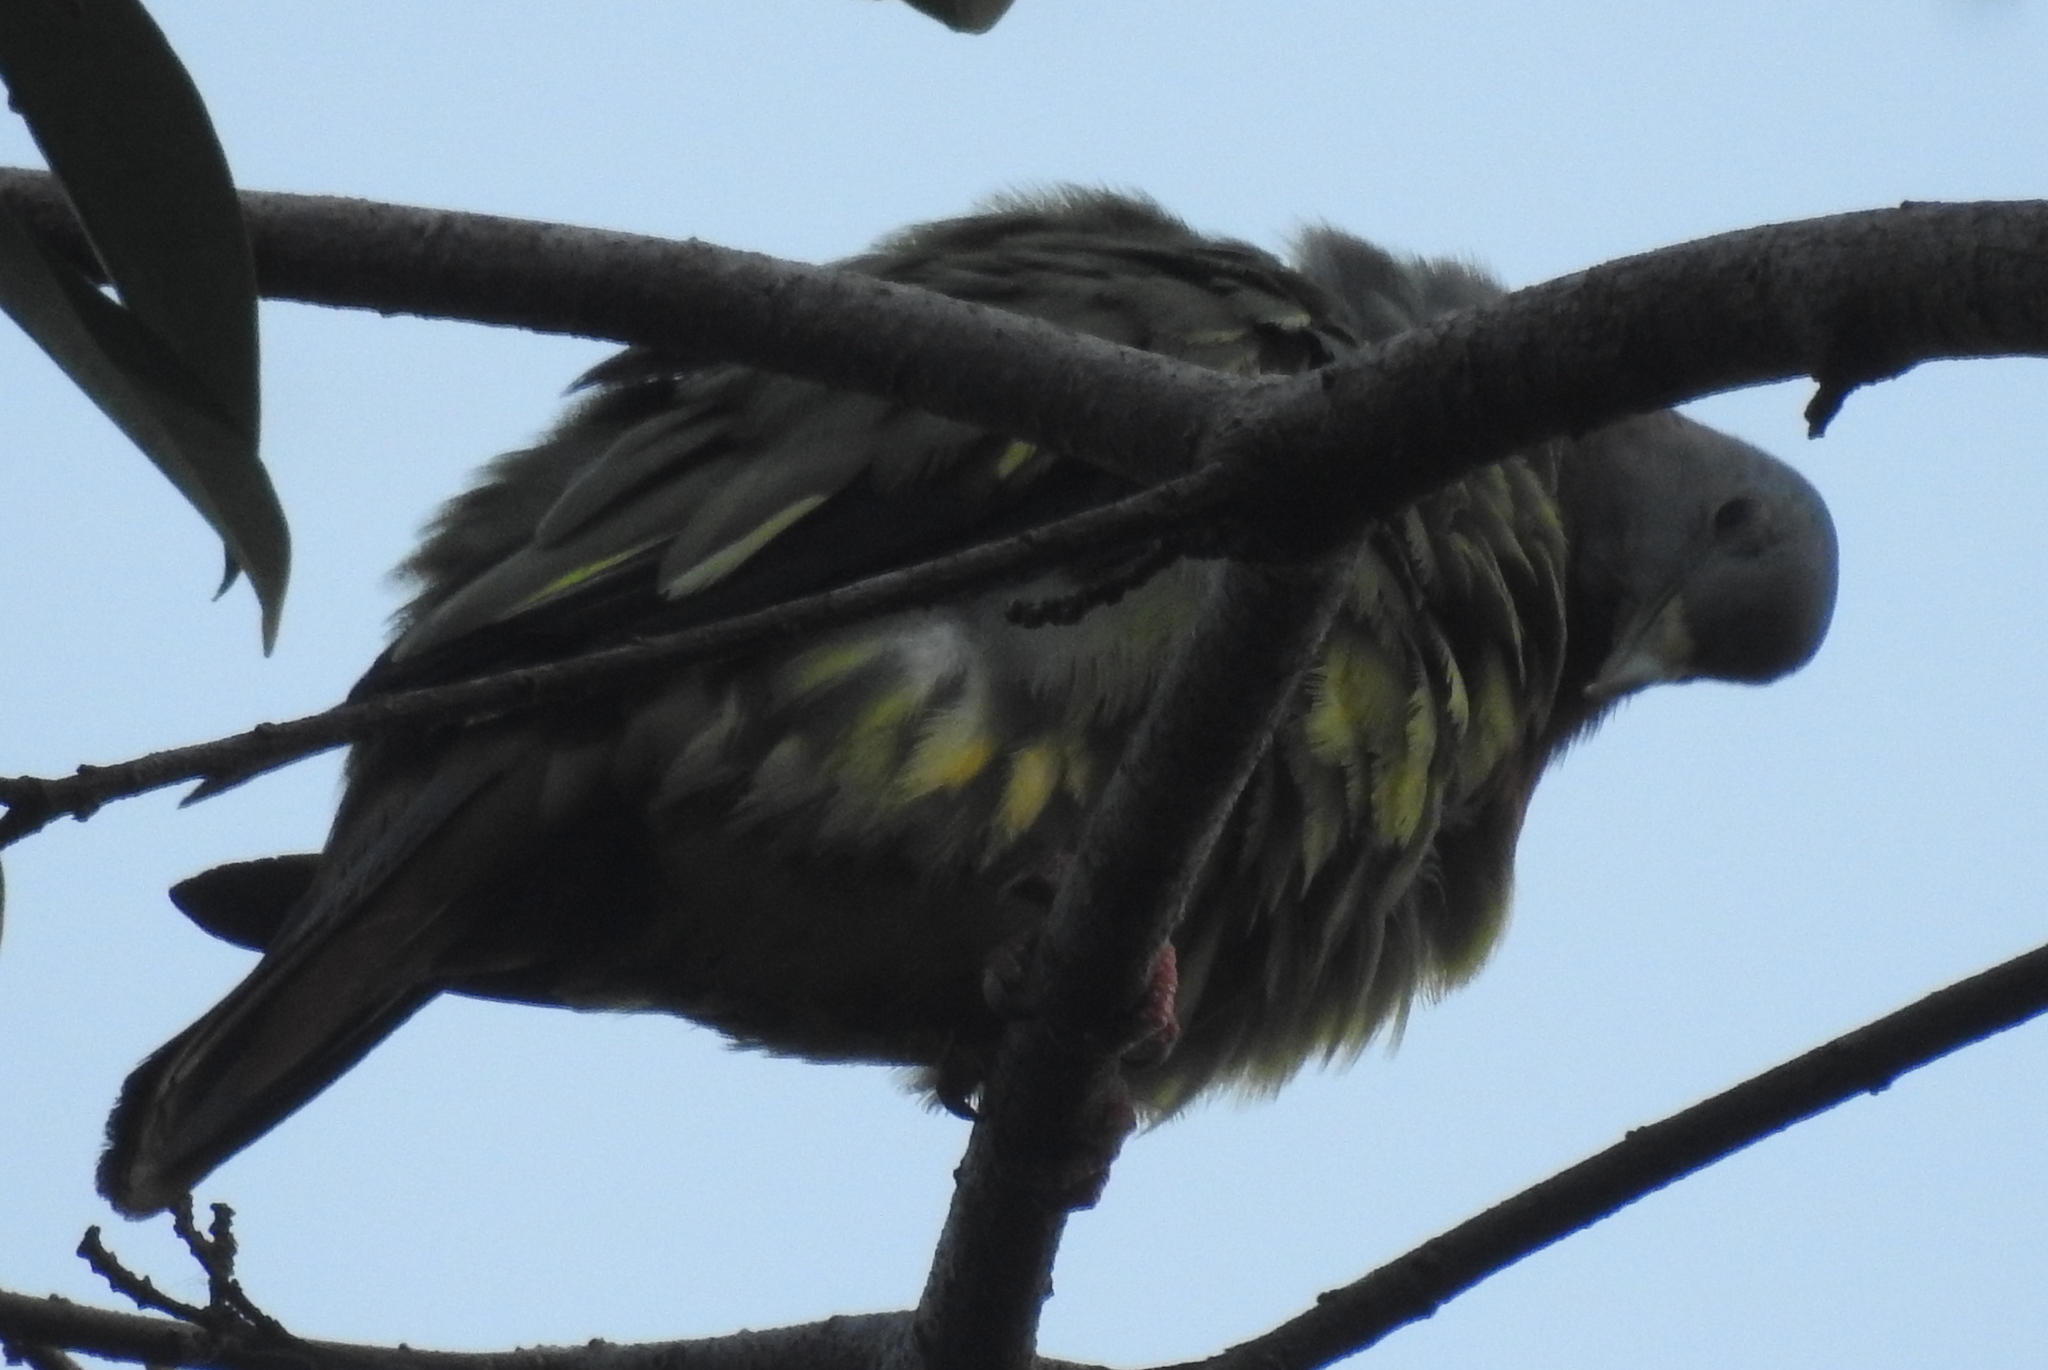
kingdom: Animalia
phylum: Chordata
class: Aves
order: Columbiformes
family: Columbidae
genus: Treron
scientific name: Treron vernans
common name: Pink-necked green pigeon
